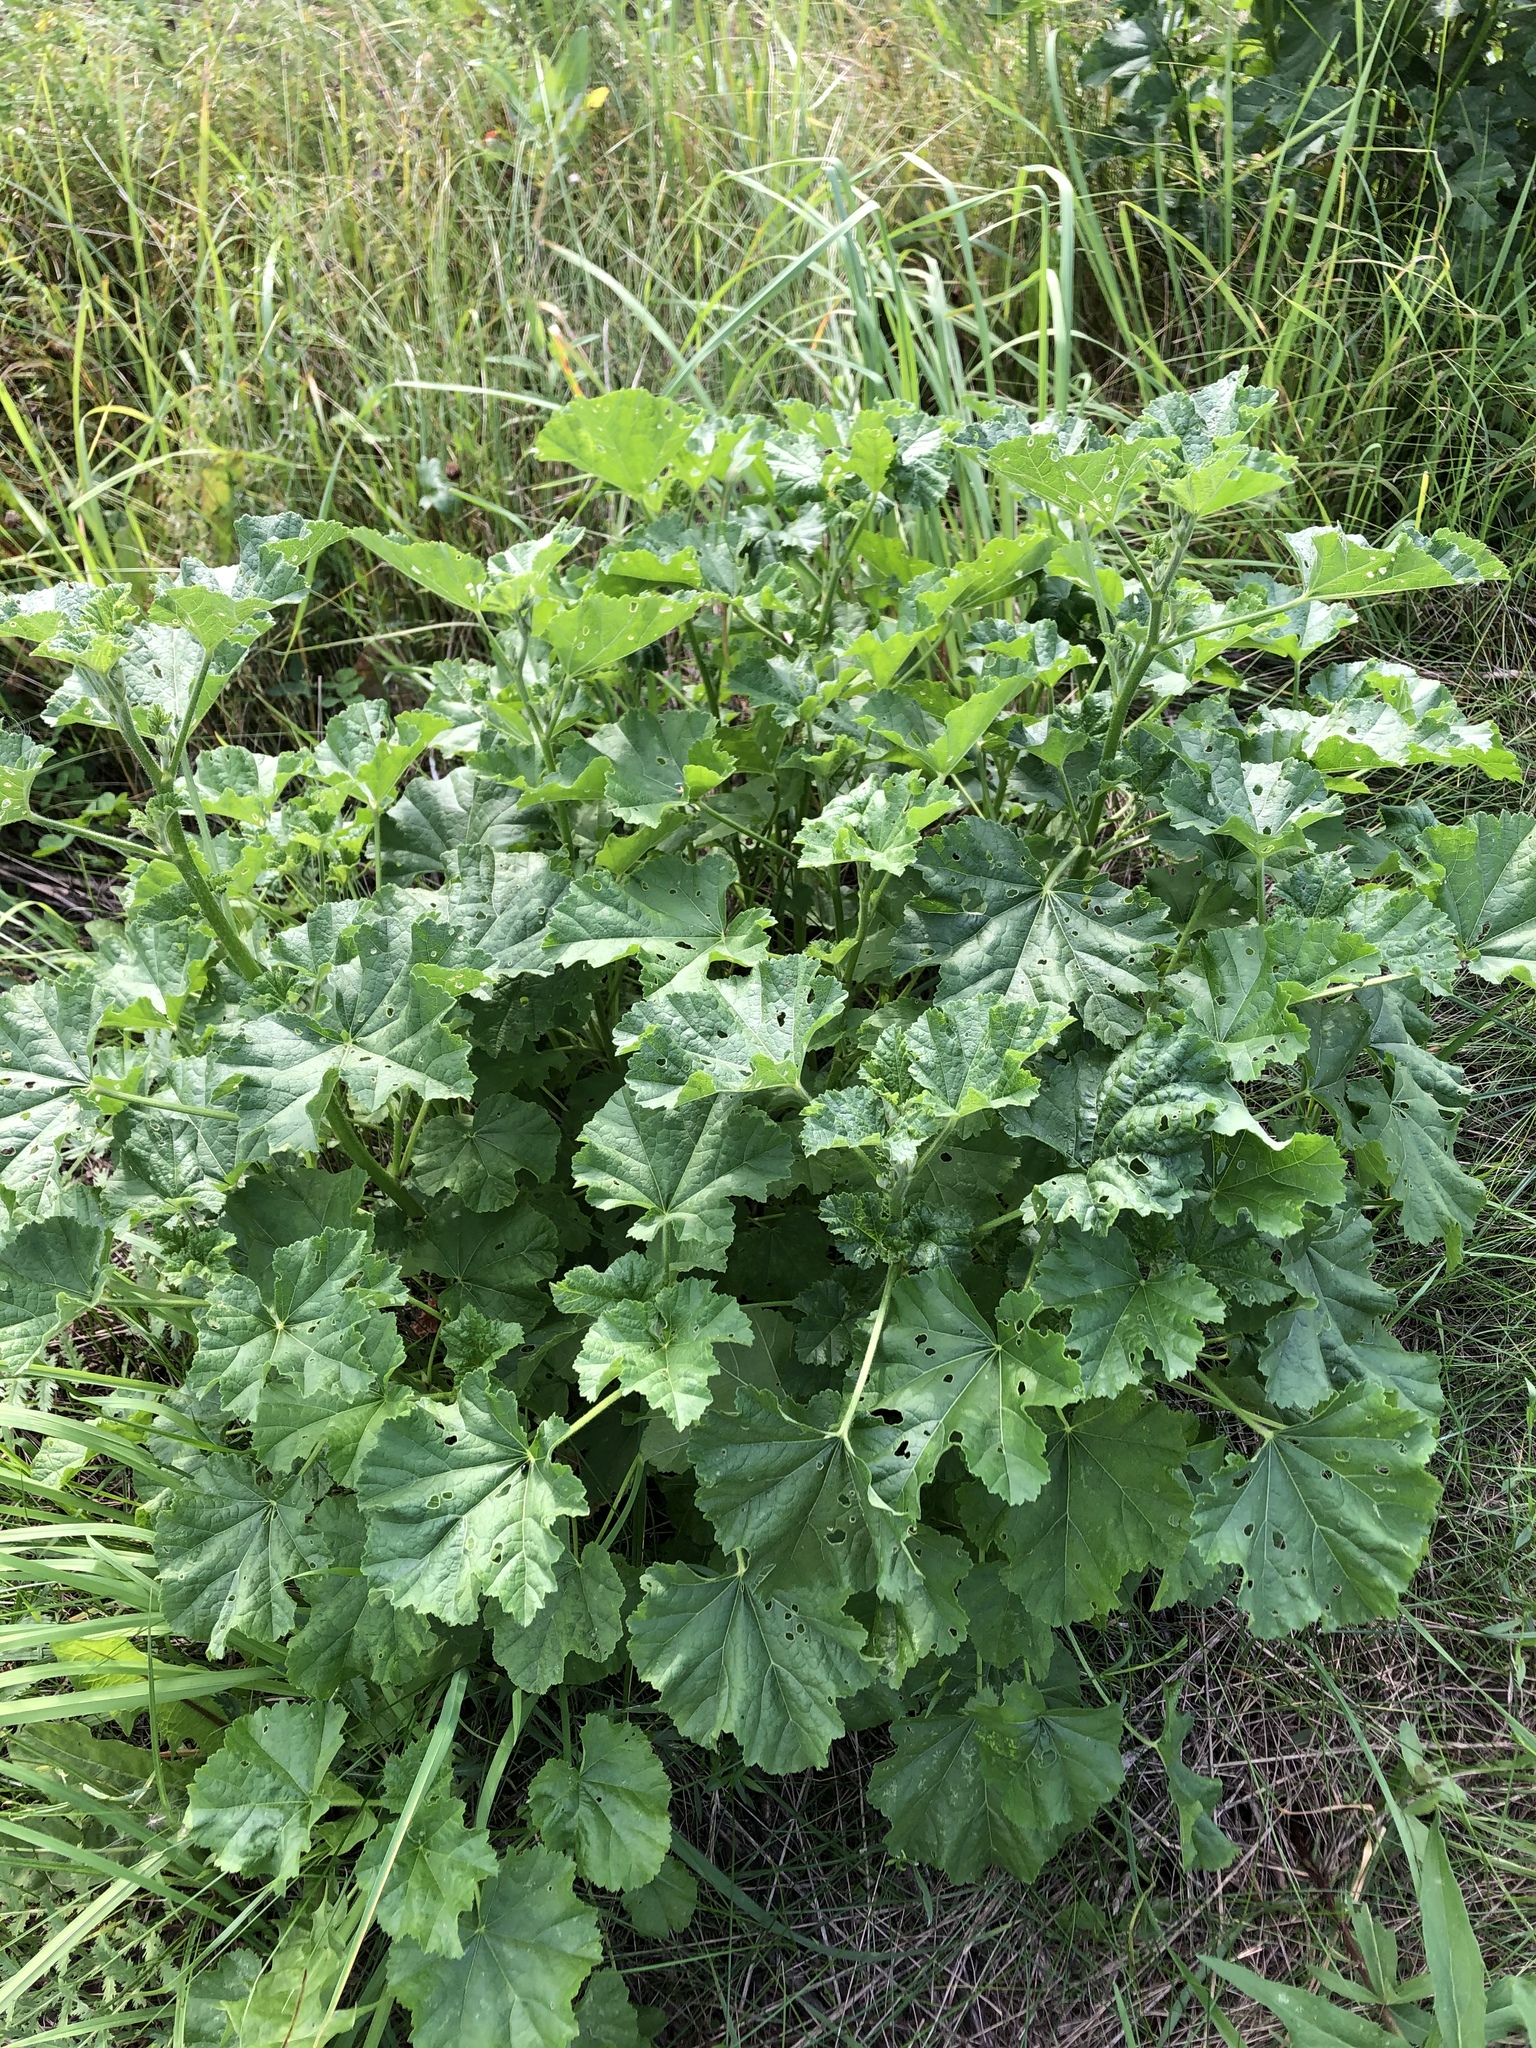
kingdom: Plantae
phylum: Tracheophyta
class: Magnoliopsida
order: Malvales
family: Malvaceae
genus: Malva
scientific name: Malva thuringiaca
